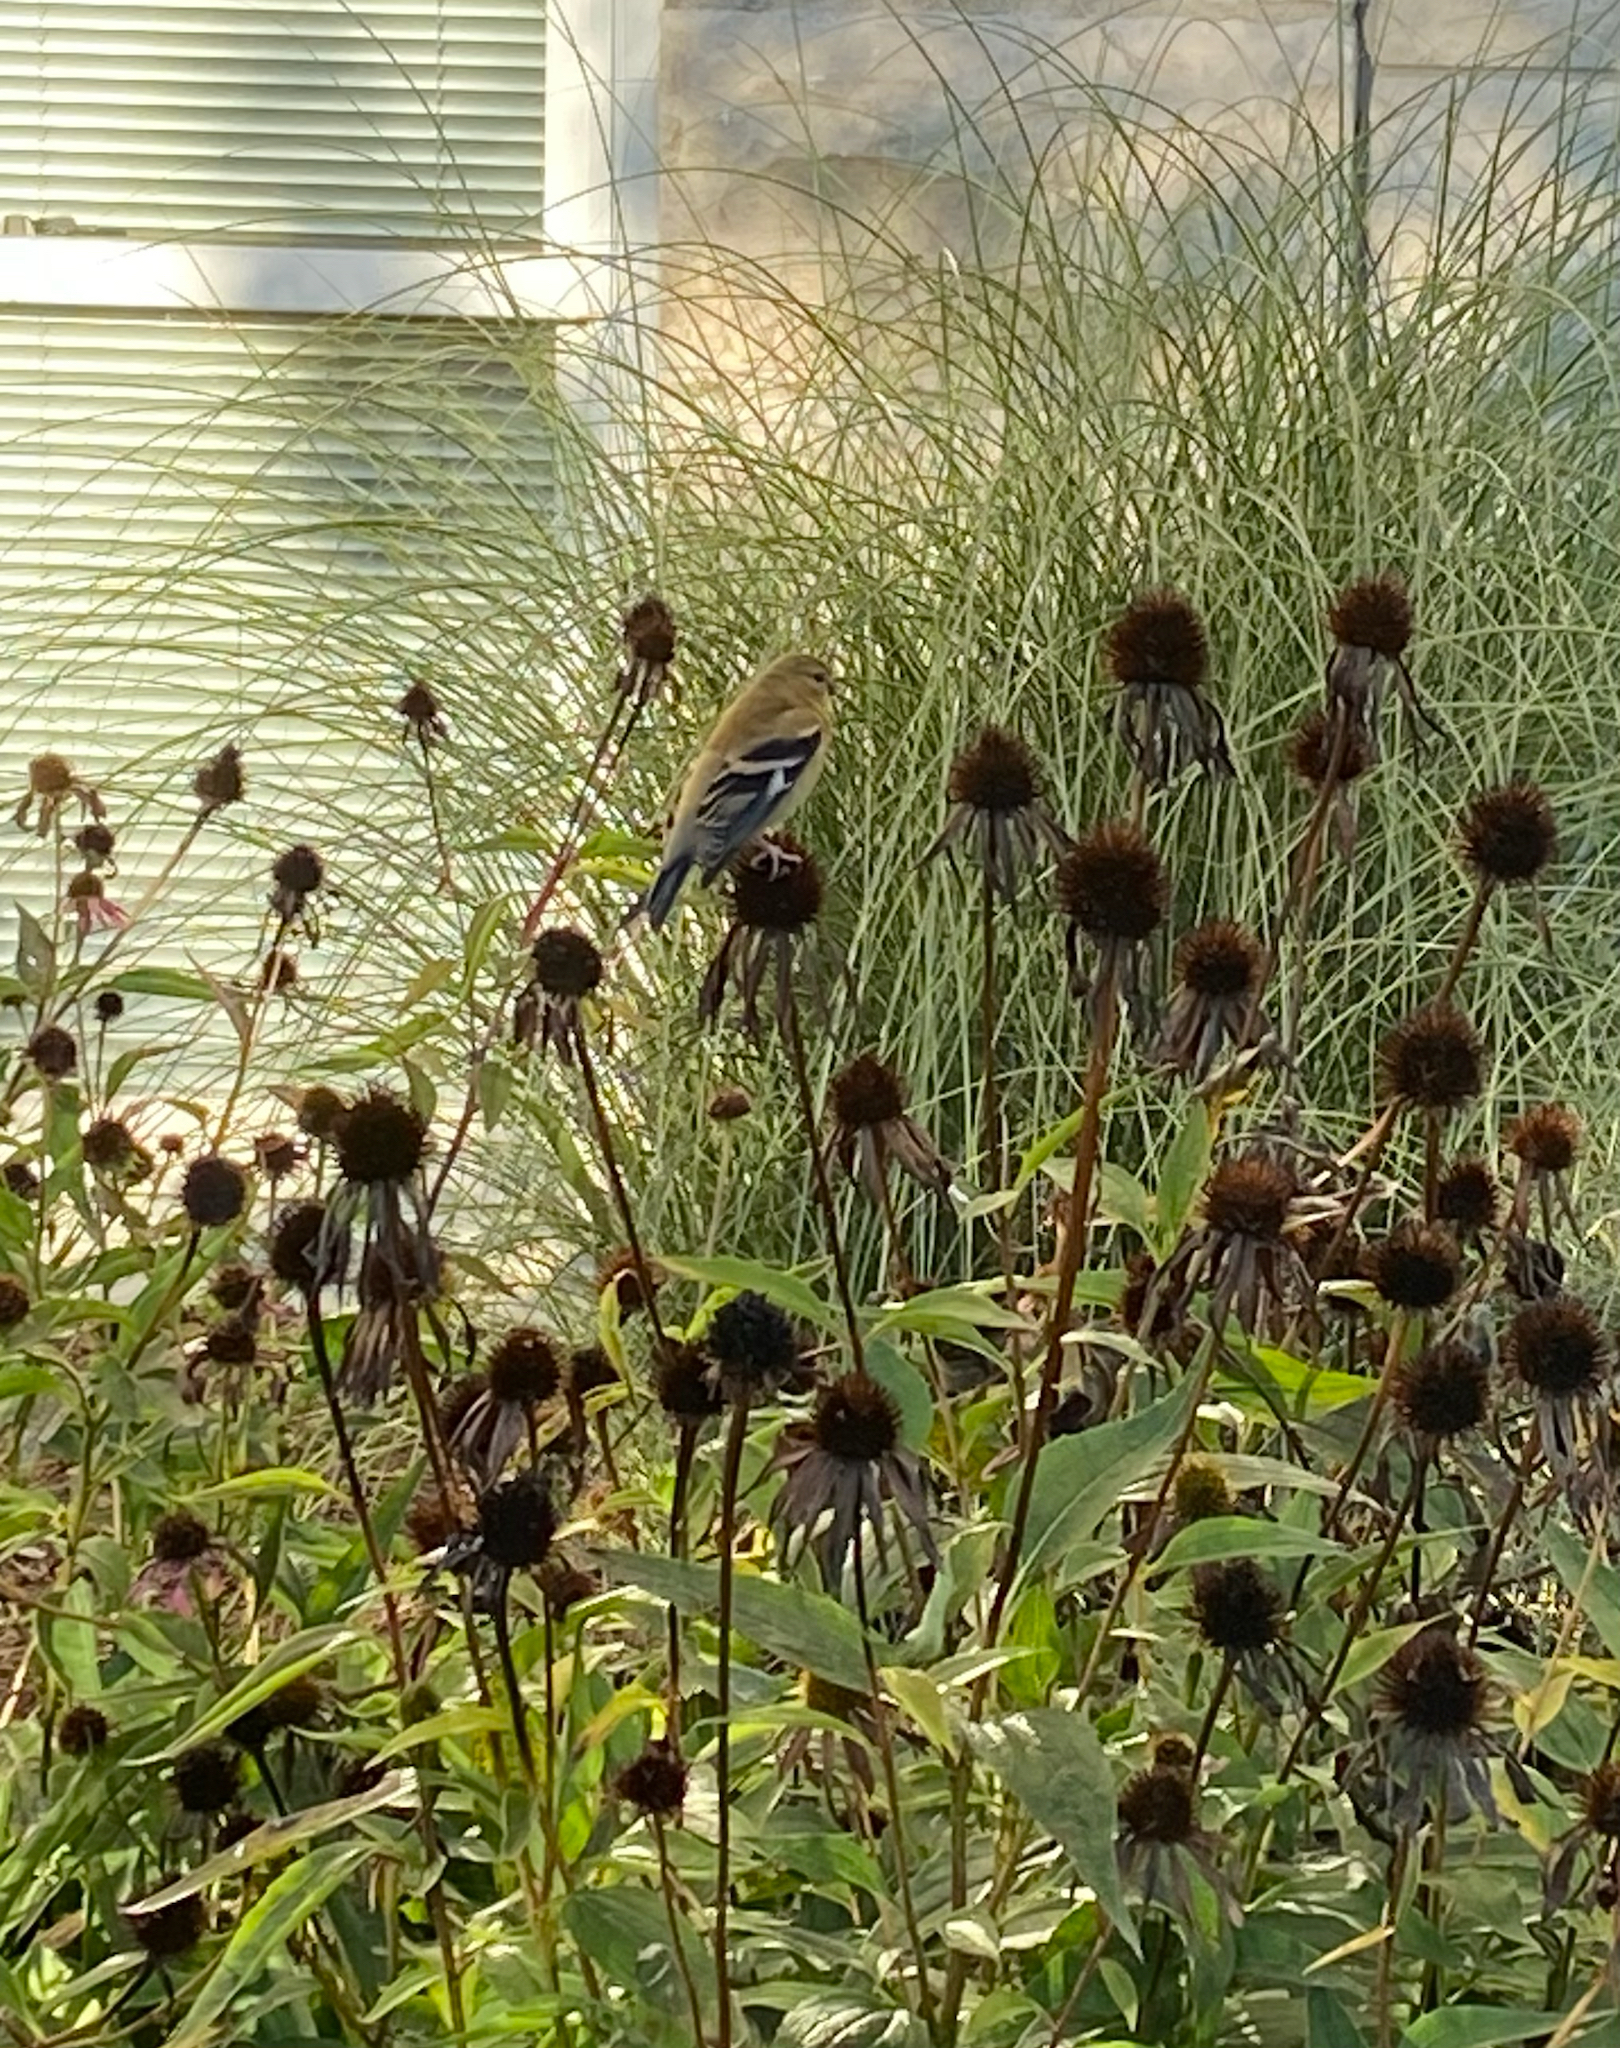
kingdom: Animalia
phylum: Chordata
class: Aves
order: Passeriformes
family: Fringillidae
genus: Spinus
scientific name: Spinus tristis
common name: American goldfinch
